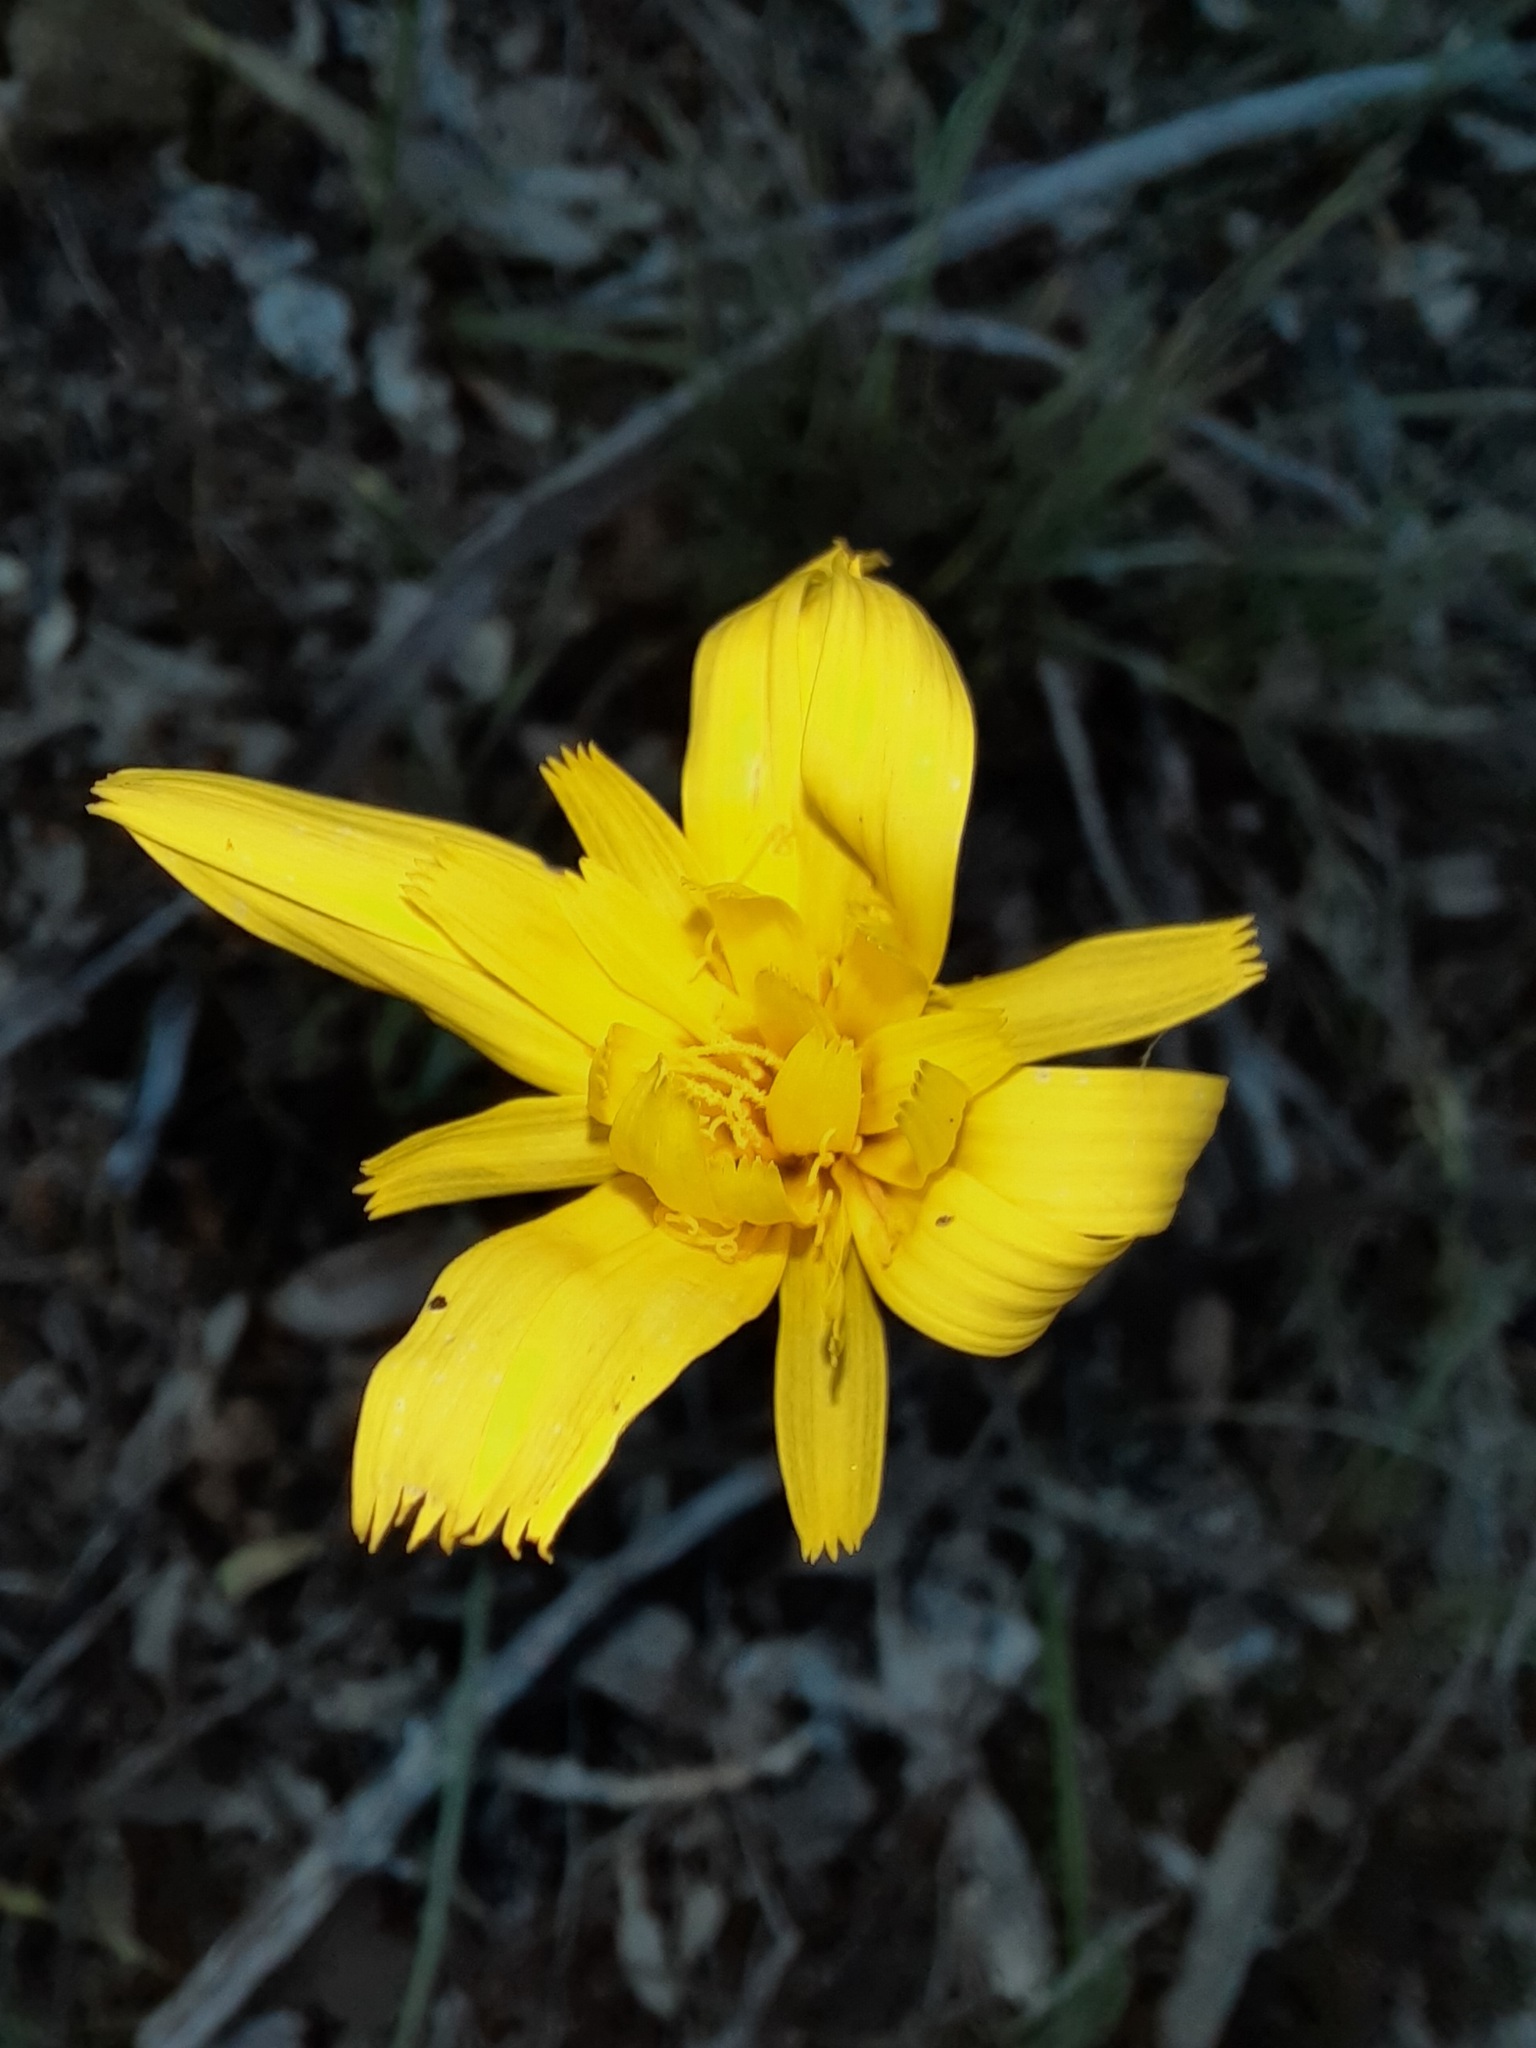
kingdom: Plantae
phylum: Tracheophyta
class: Magnoliopsida
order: Asterales
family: Asteraceae
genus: Microseris
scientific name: Microseris lanceolata
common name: Yam daisy
